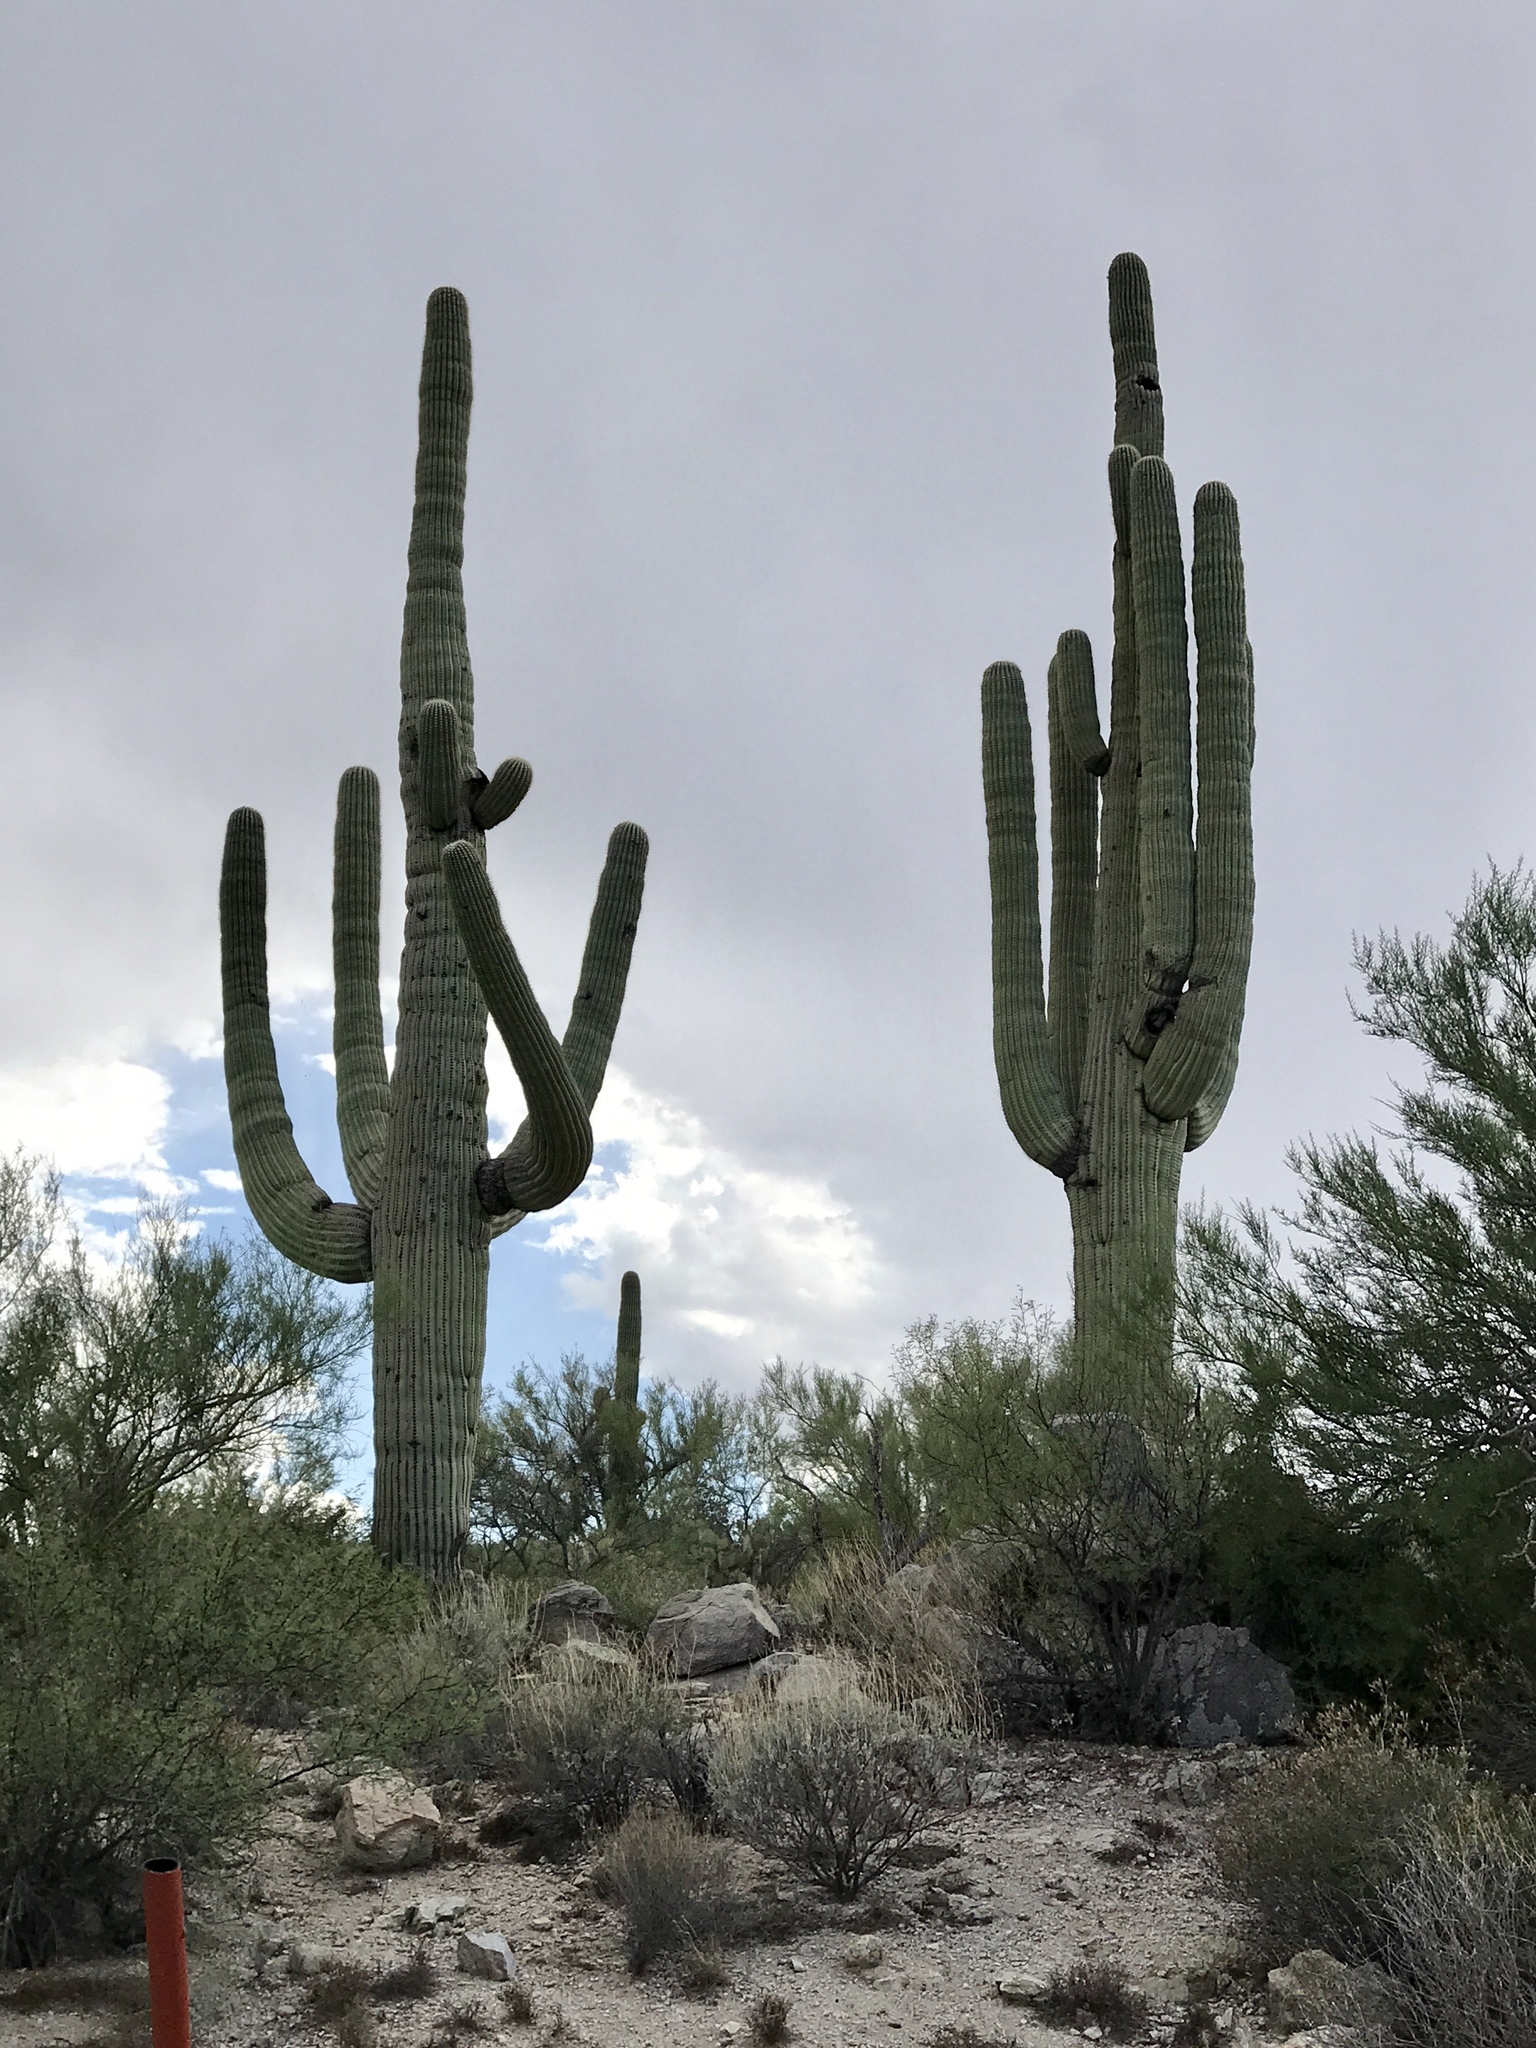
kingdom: Plantae
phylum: Tracheophyta
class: Magnoliopsida
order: Caryophyllales
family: Cactaceae
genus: Carnegiea
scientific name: Carnegiea gigantea
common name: Saguaro
